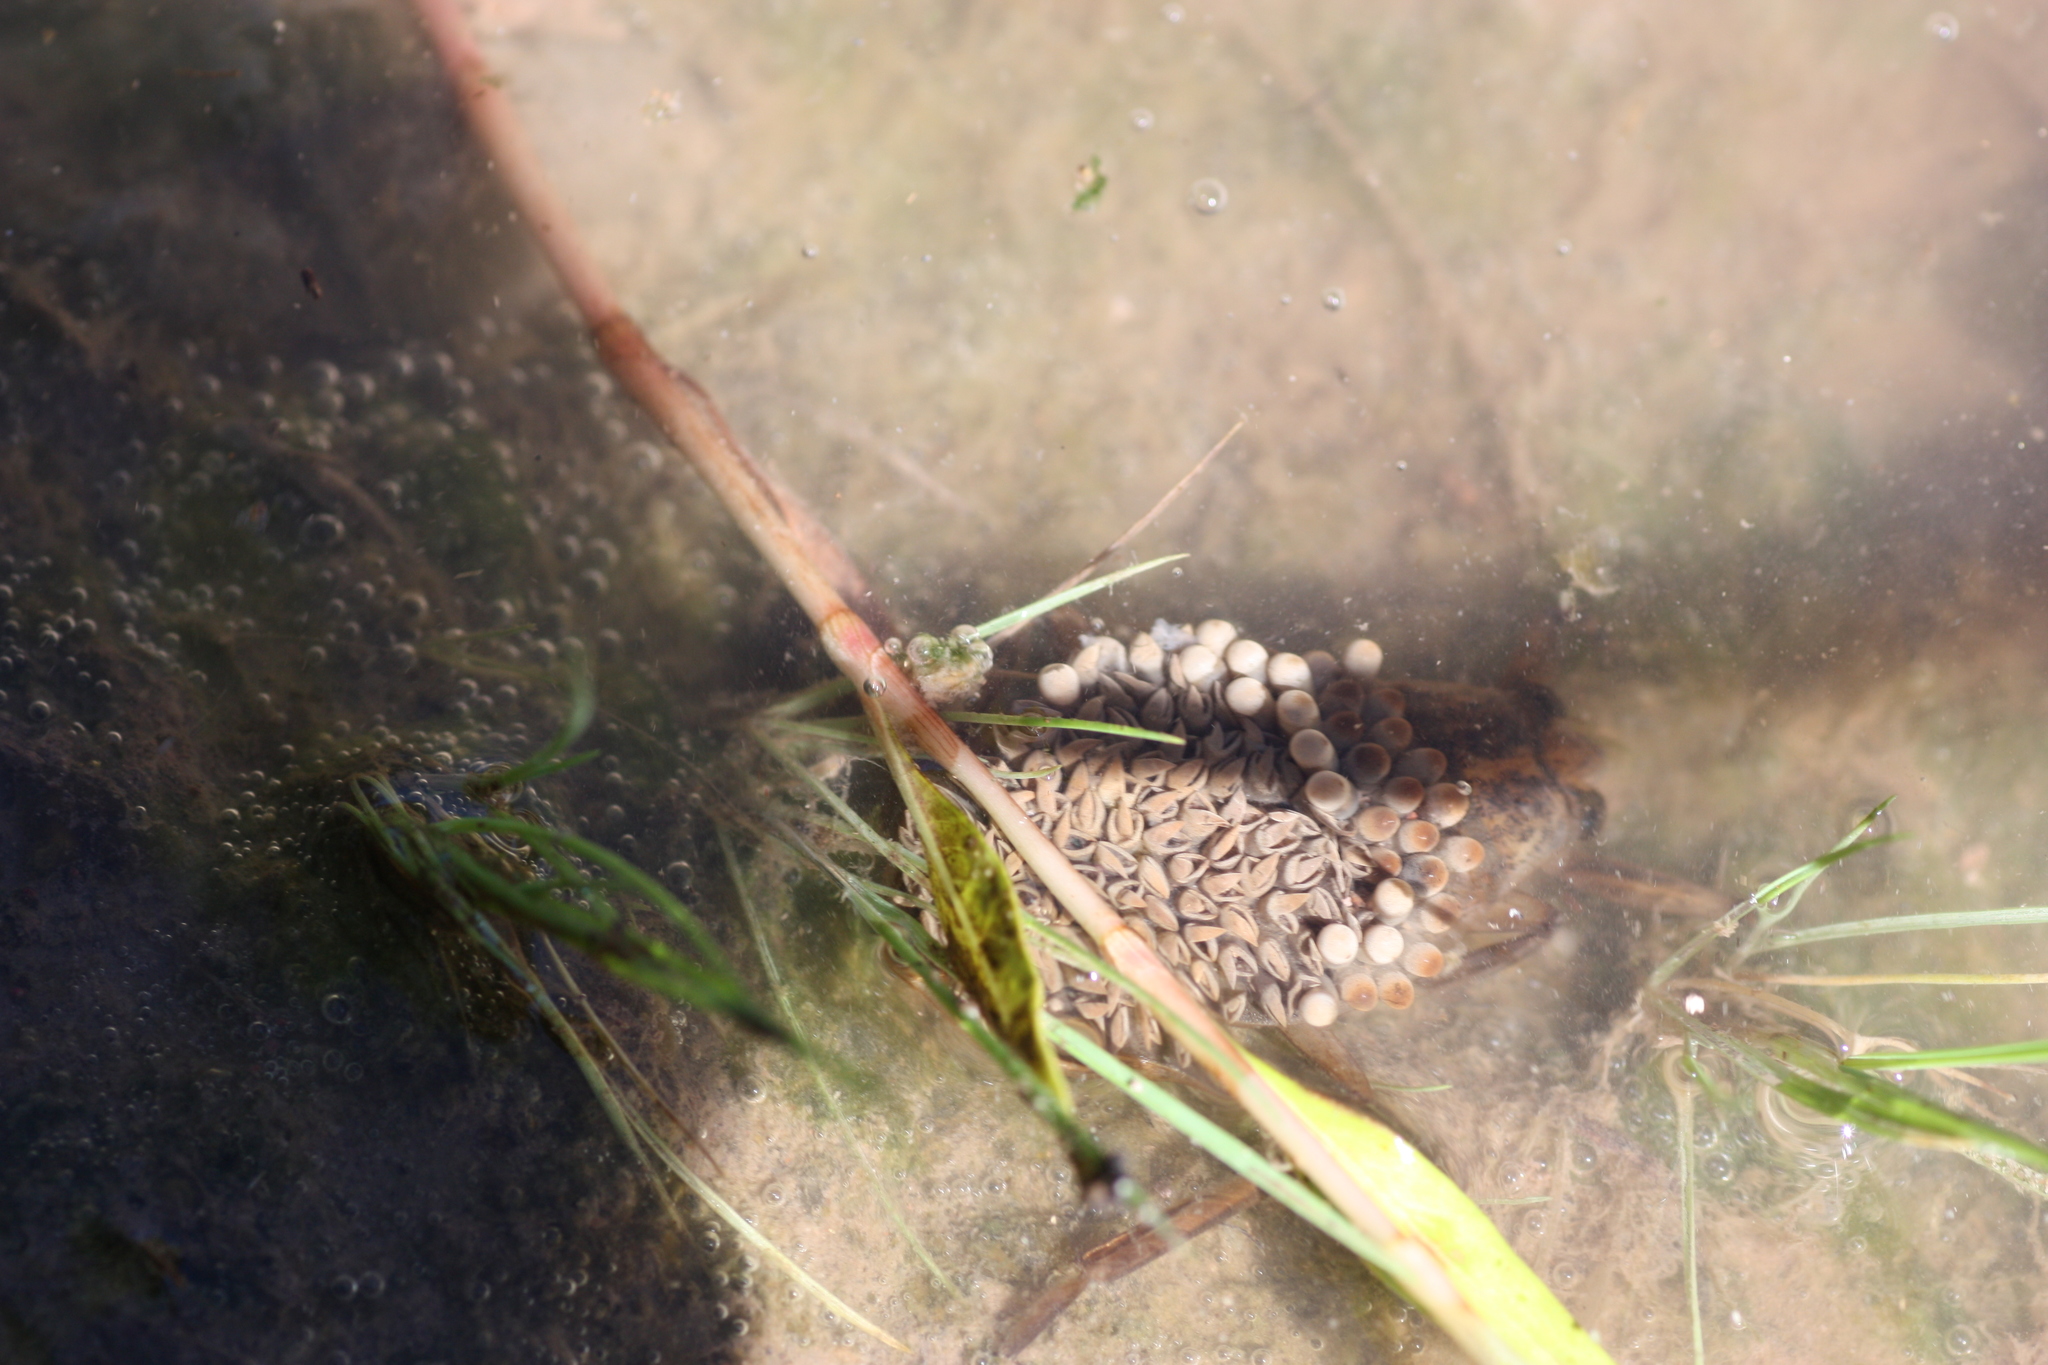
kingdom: Animalia
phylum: Arthropoda
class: Insecta
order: Hemiptera
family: Belostomatidae
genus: Abedus
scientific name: Abedus
